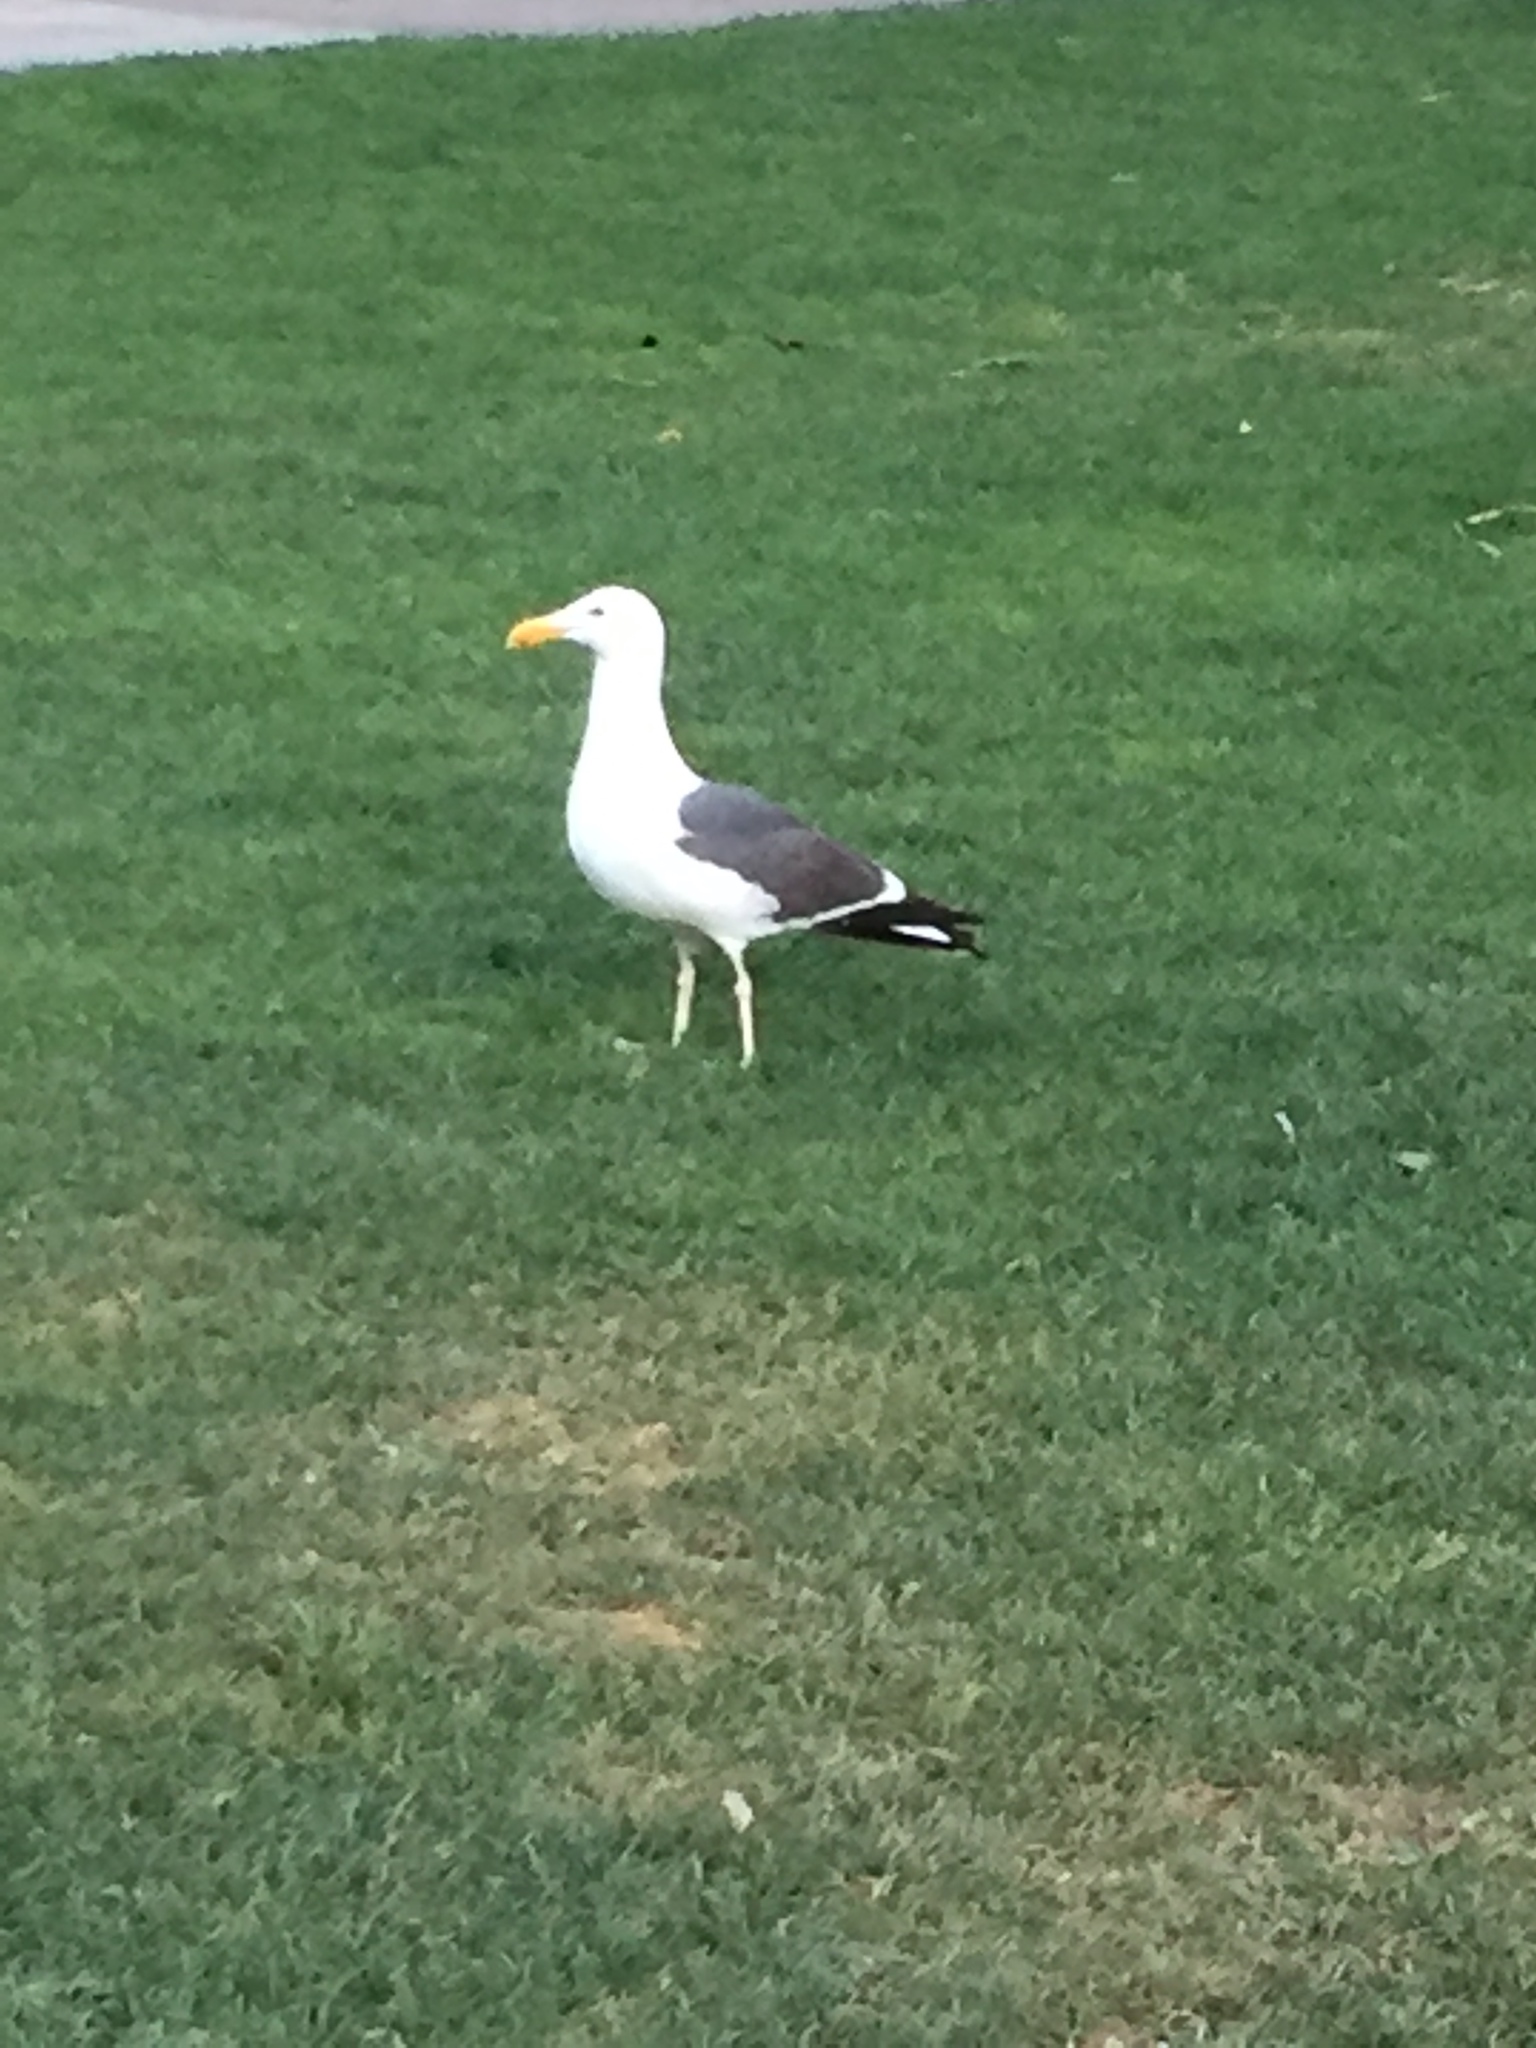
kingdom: Animalia
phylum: Chordata
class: Aves
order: Charadriiformes
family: Laridae
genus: Larus
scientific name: Larus occidentalis
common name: Western gull
